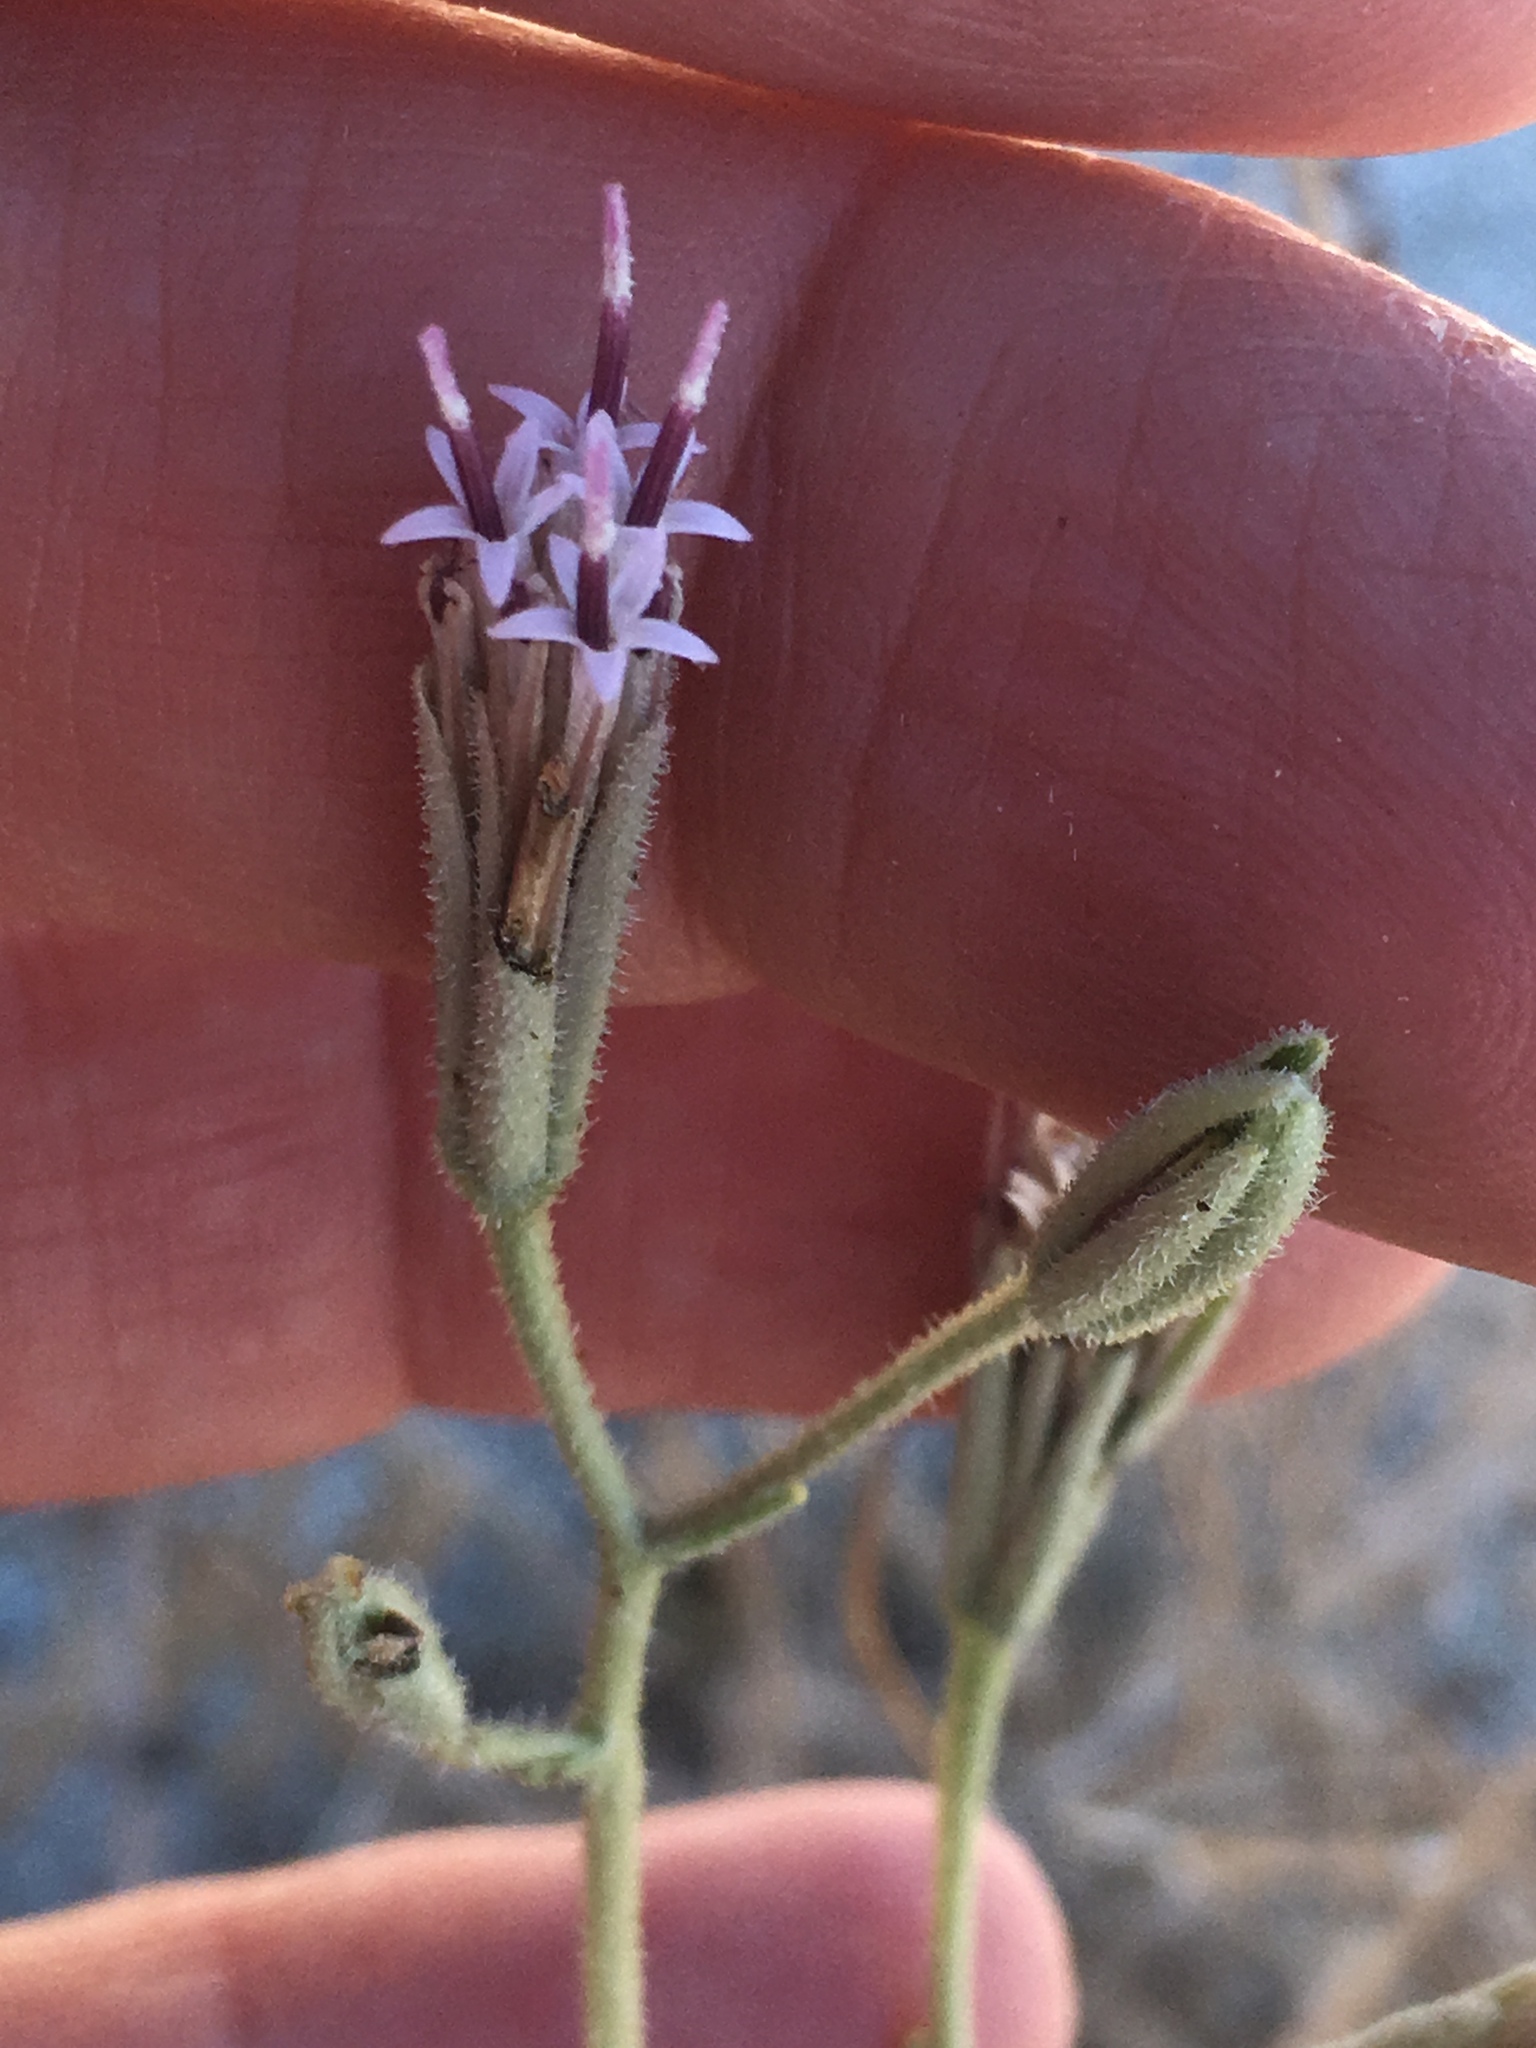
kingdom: Plantae
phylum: Tracheophyta
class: Magnoliopsida
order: Asterales
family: Asteraceae
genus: Palafoxia
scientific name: Palafoxia arida
